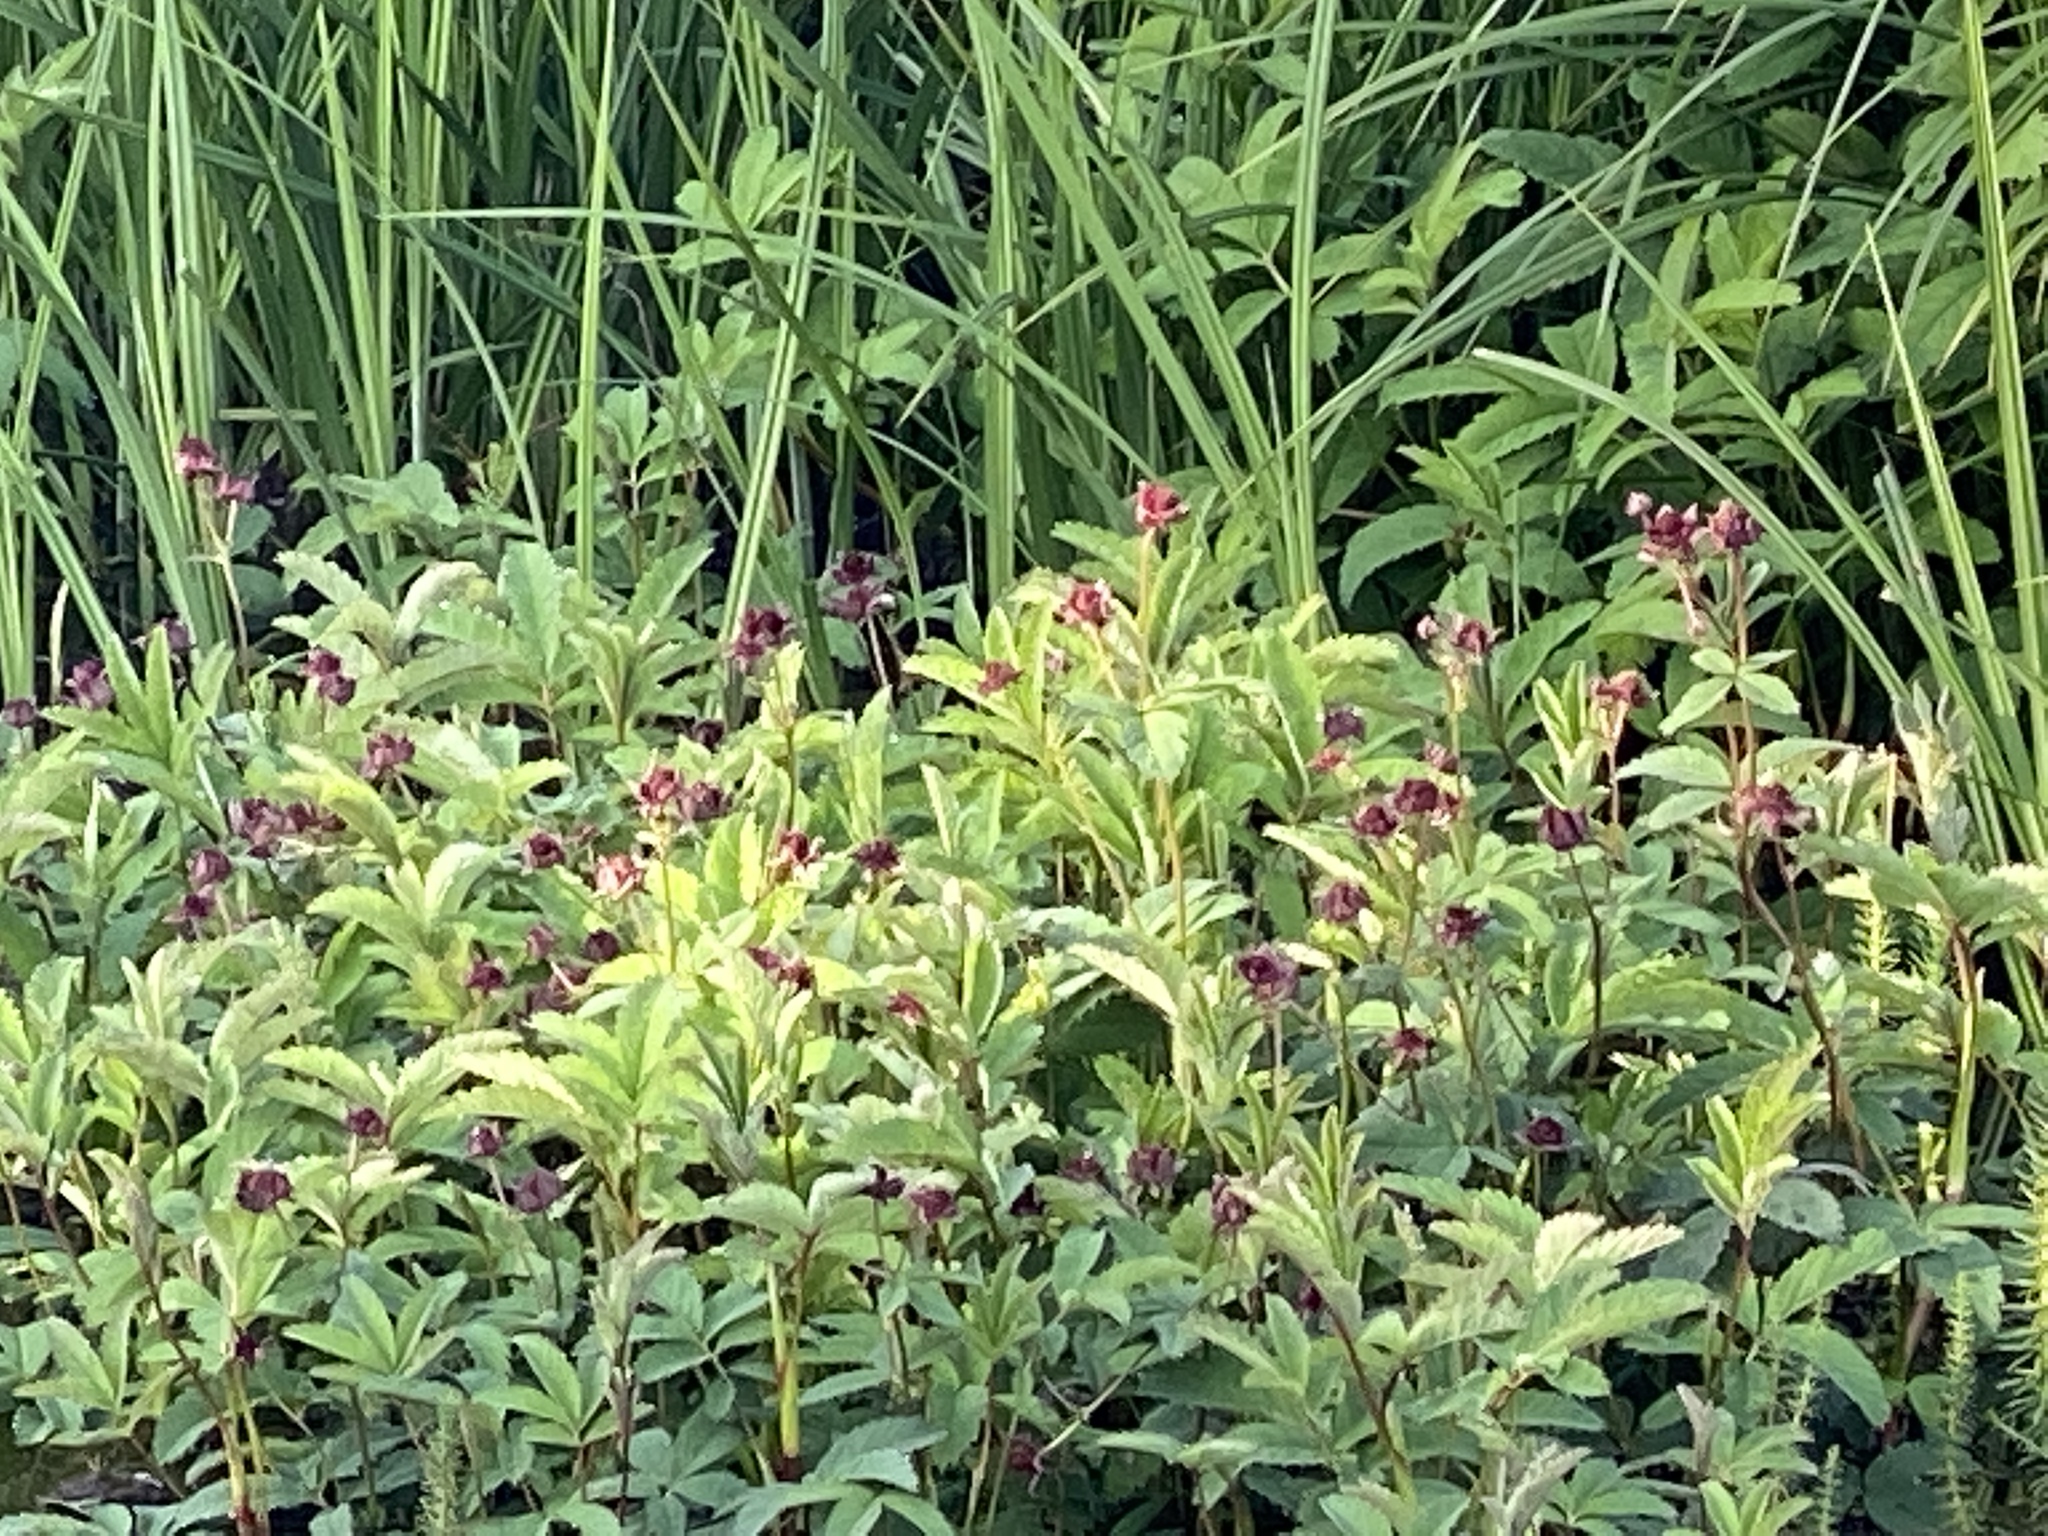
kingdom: Plantae
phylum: Tracheophyta
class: Magnoliopsida
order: Rosales
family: Rosaceae
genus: Comarum
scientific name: Comarum palustre
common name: Marsh cinquefoil
